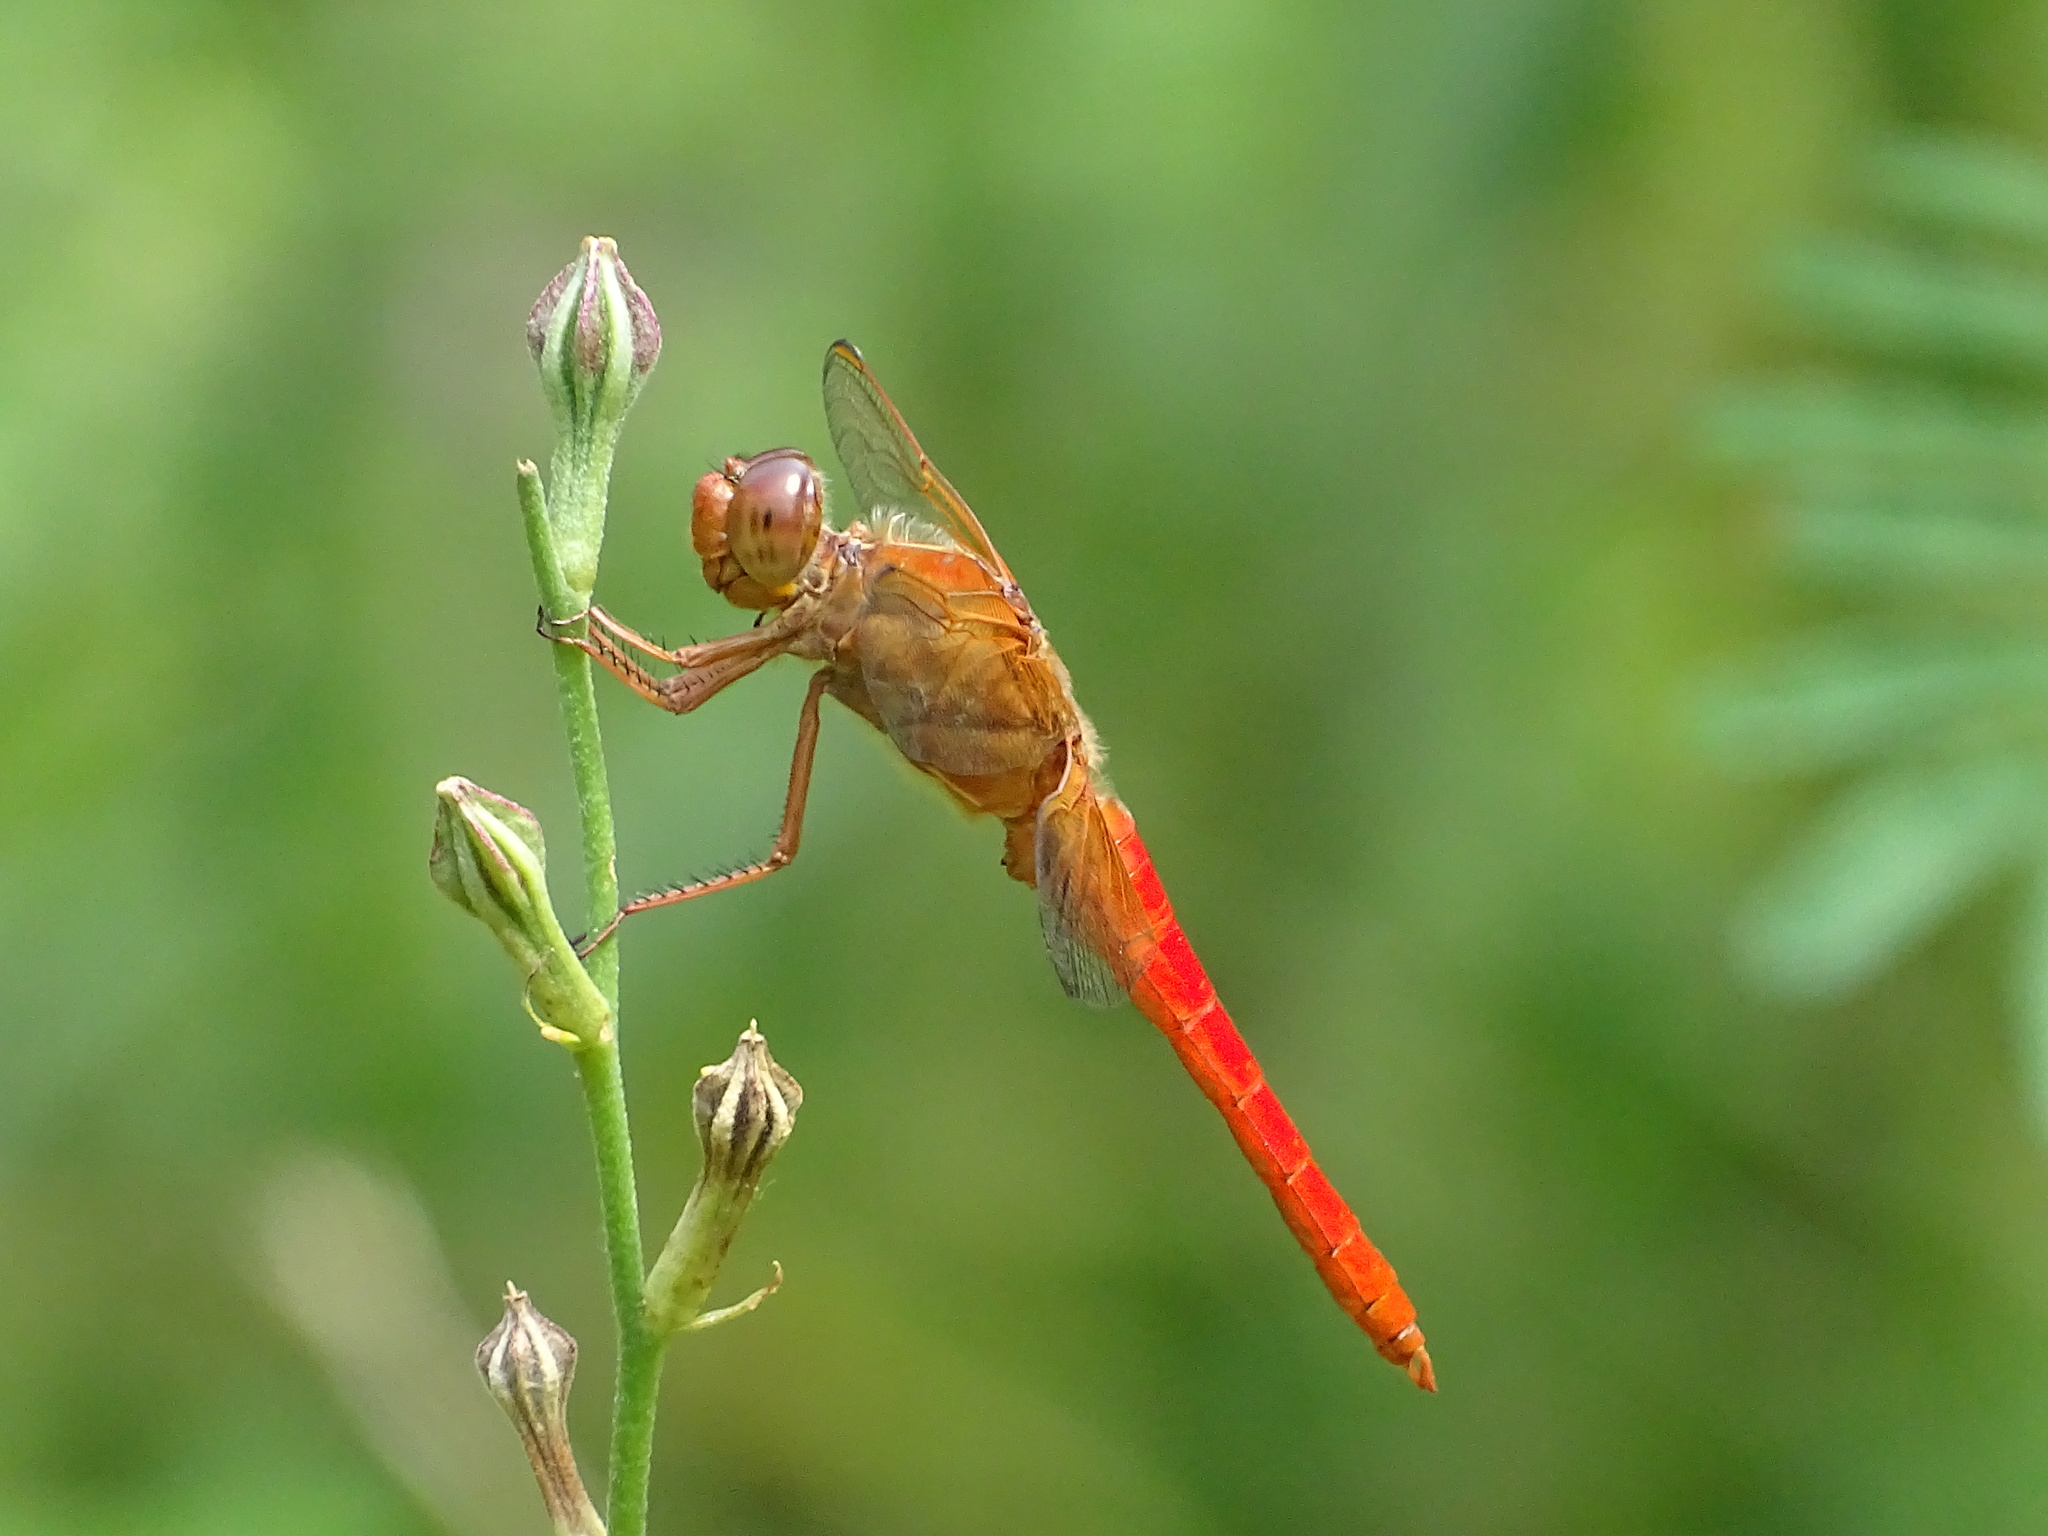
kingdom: Animalia
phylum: Arthropoda
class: Insecta
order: Odonata
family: Libellulidae
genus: Libellula
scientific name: Libellula croceipennis
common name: Neon skimmer
